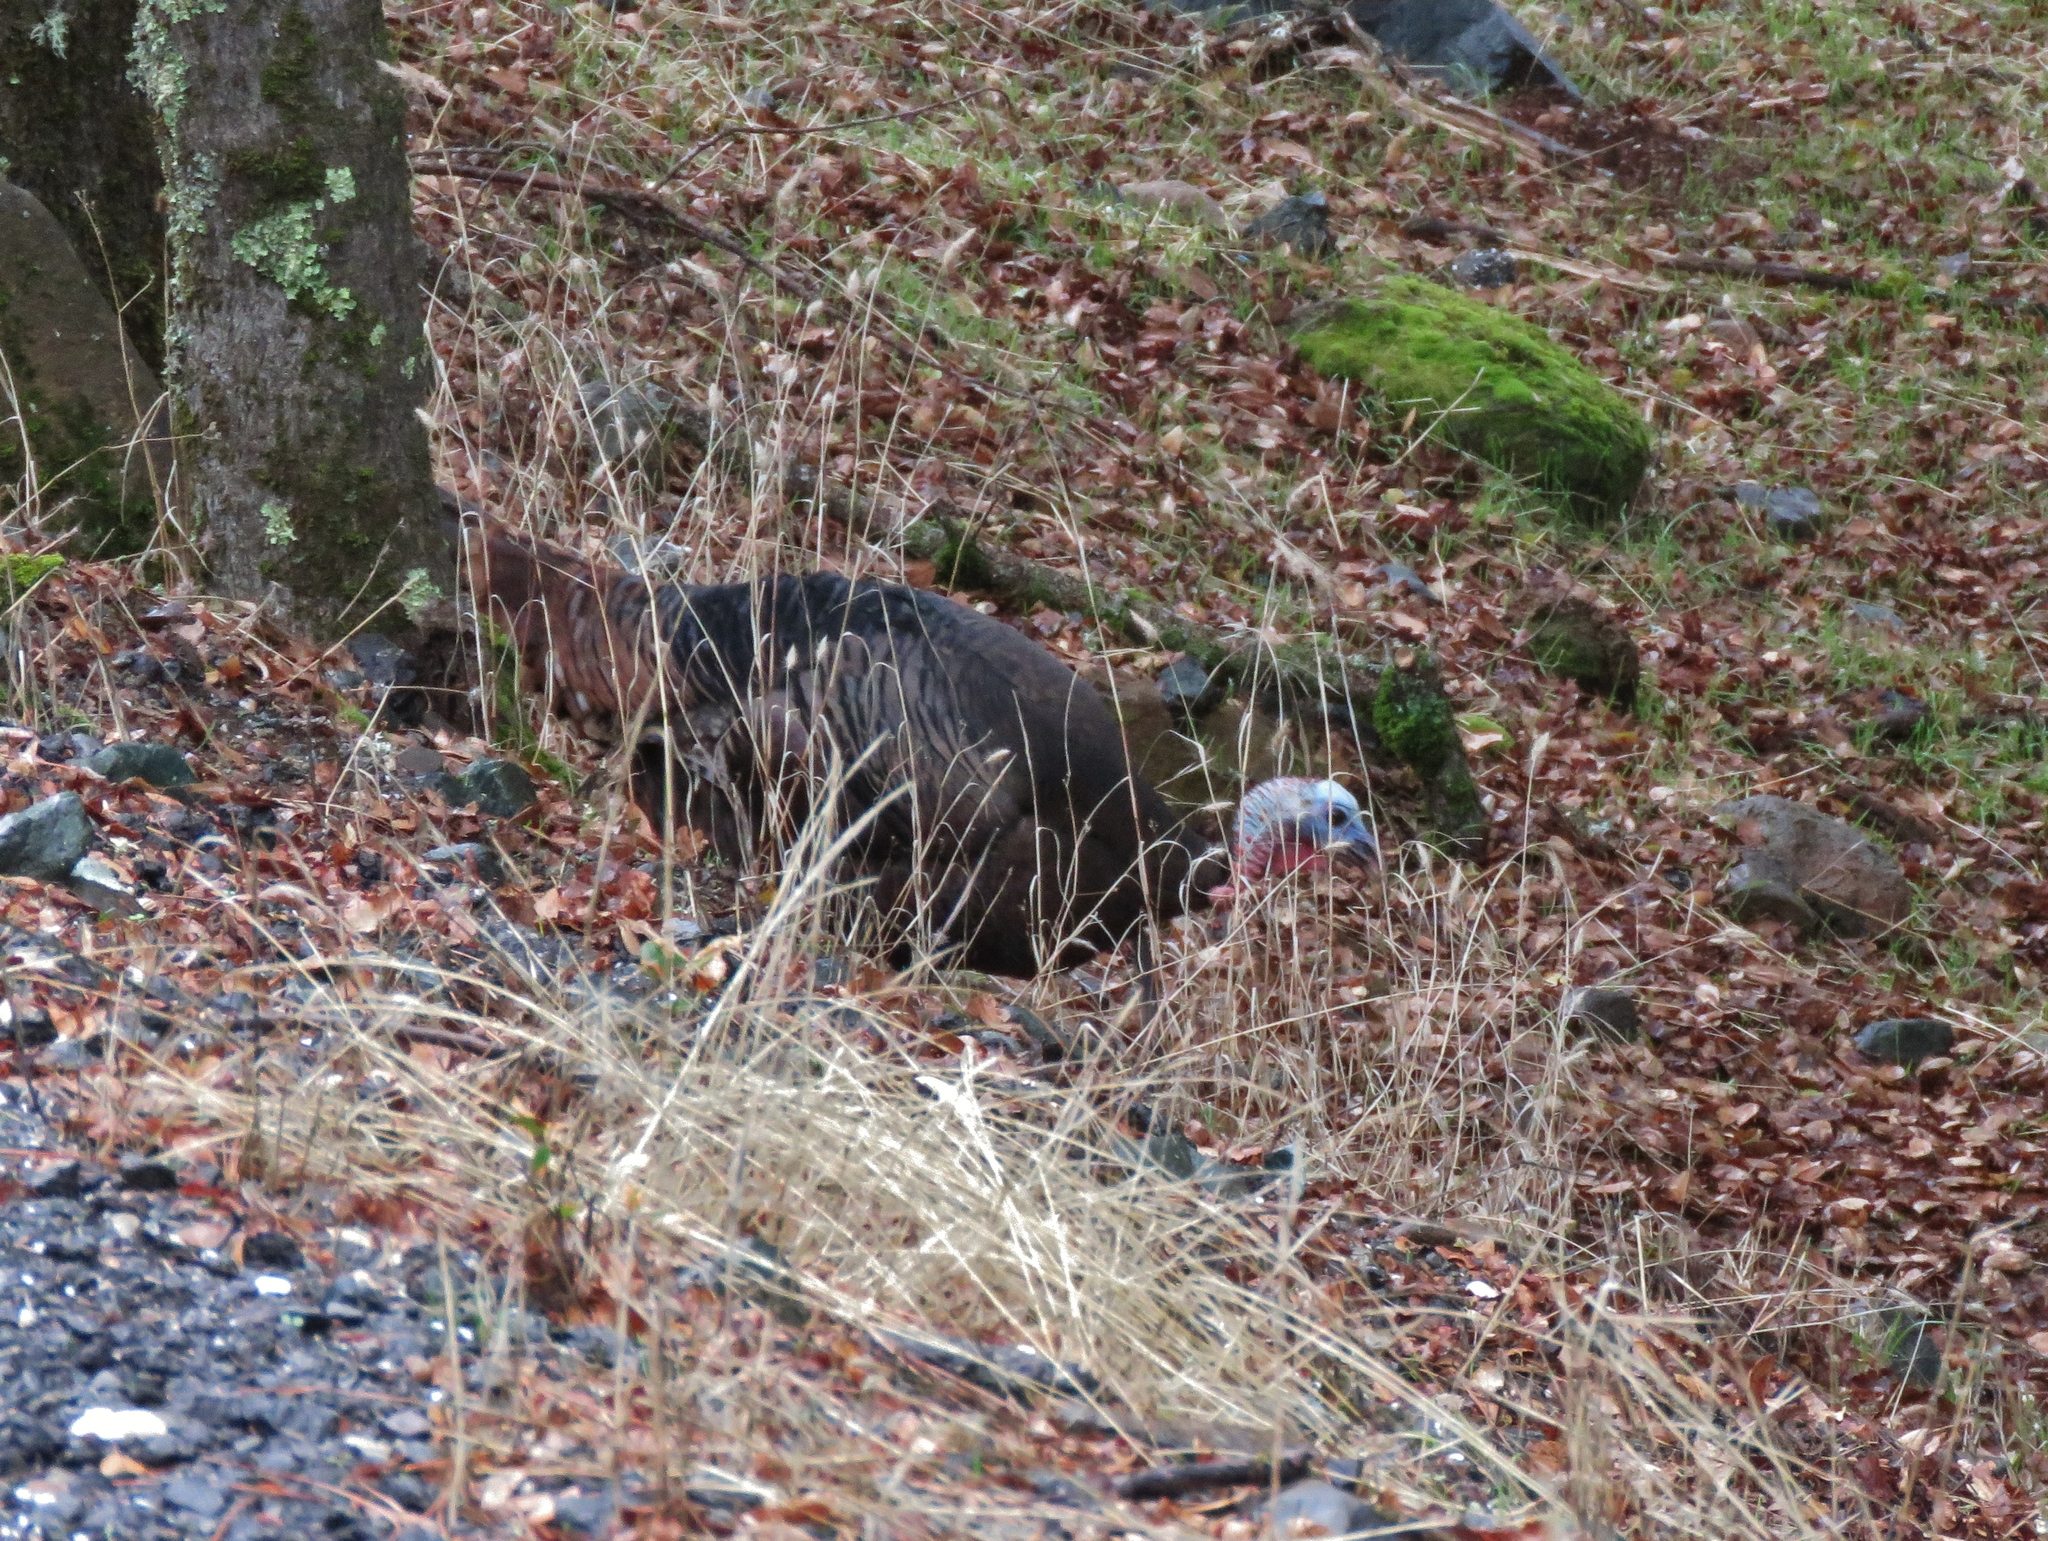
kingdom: Animalia
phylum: Chordata
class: Aves
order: Galliformes
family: Phasianidae
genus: Meleagris
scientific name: Meleagris gallopavo
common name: Wild turkey
